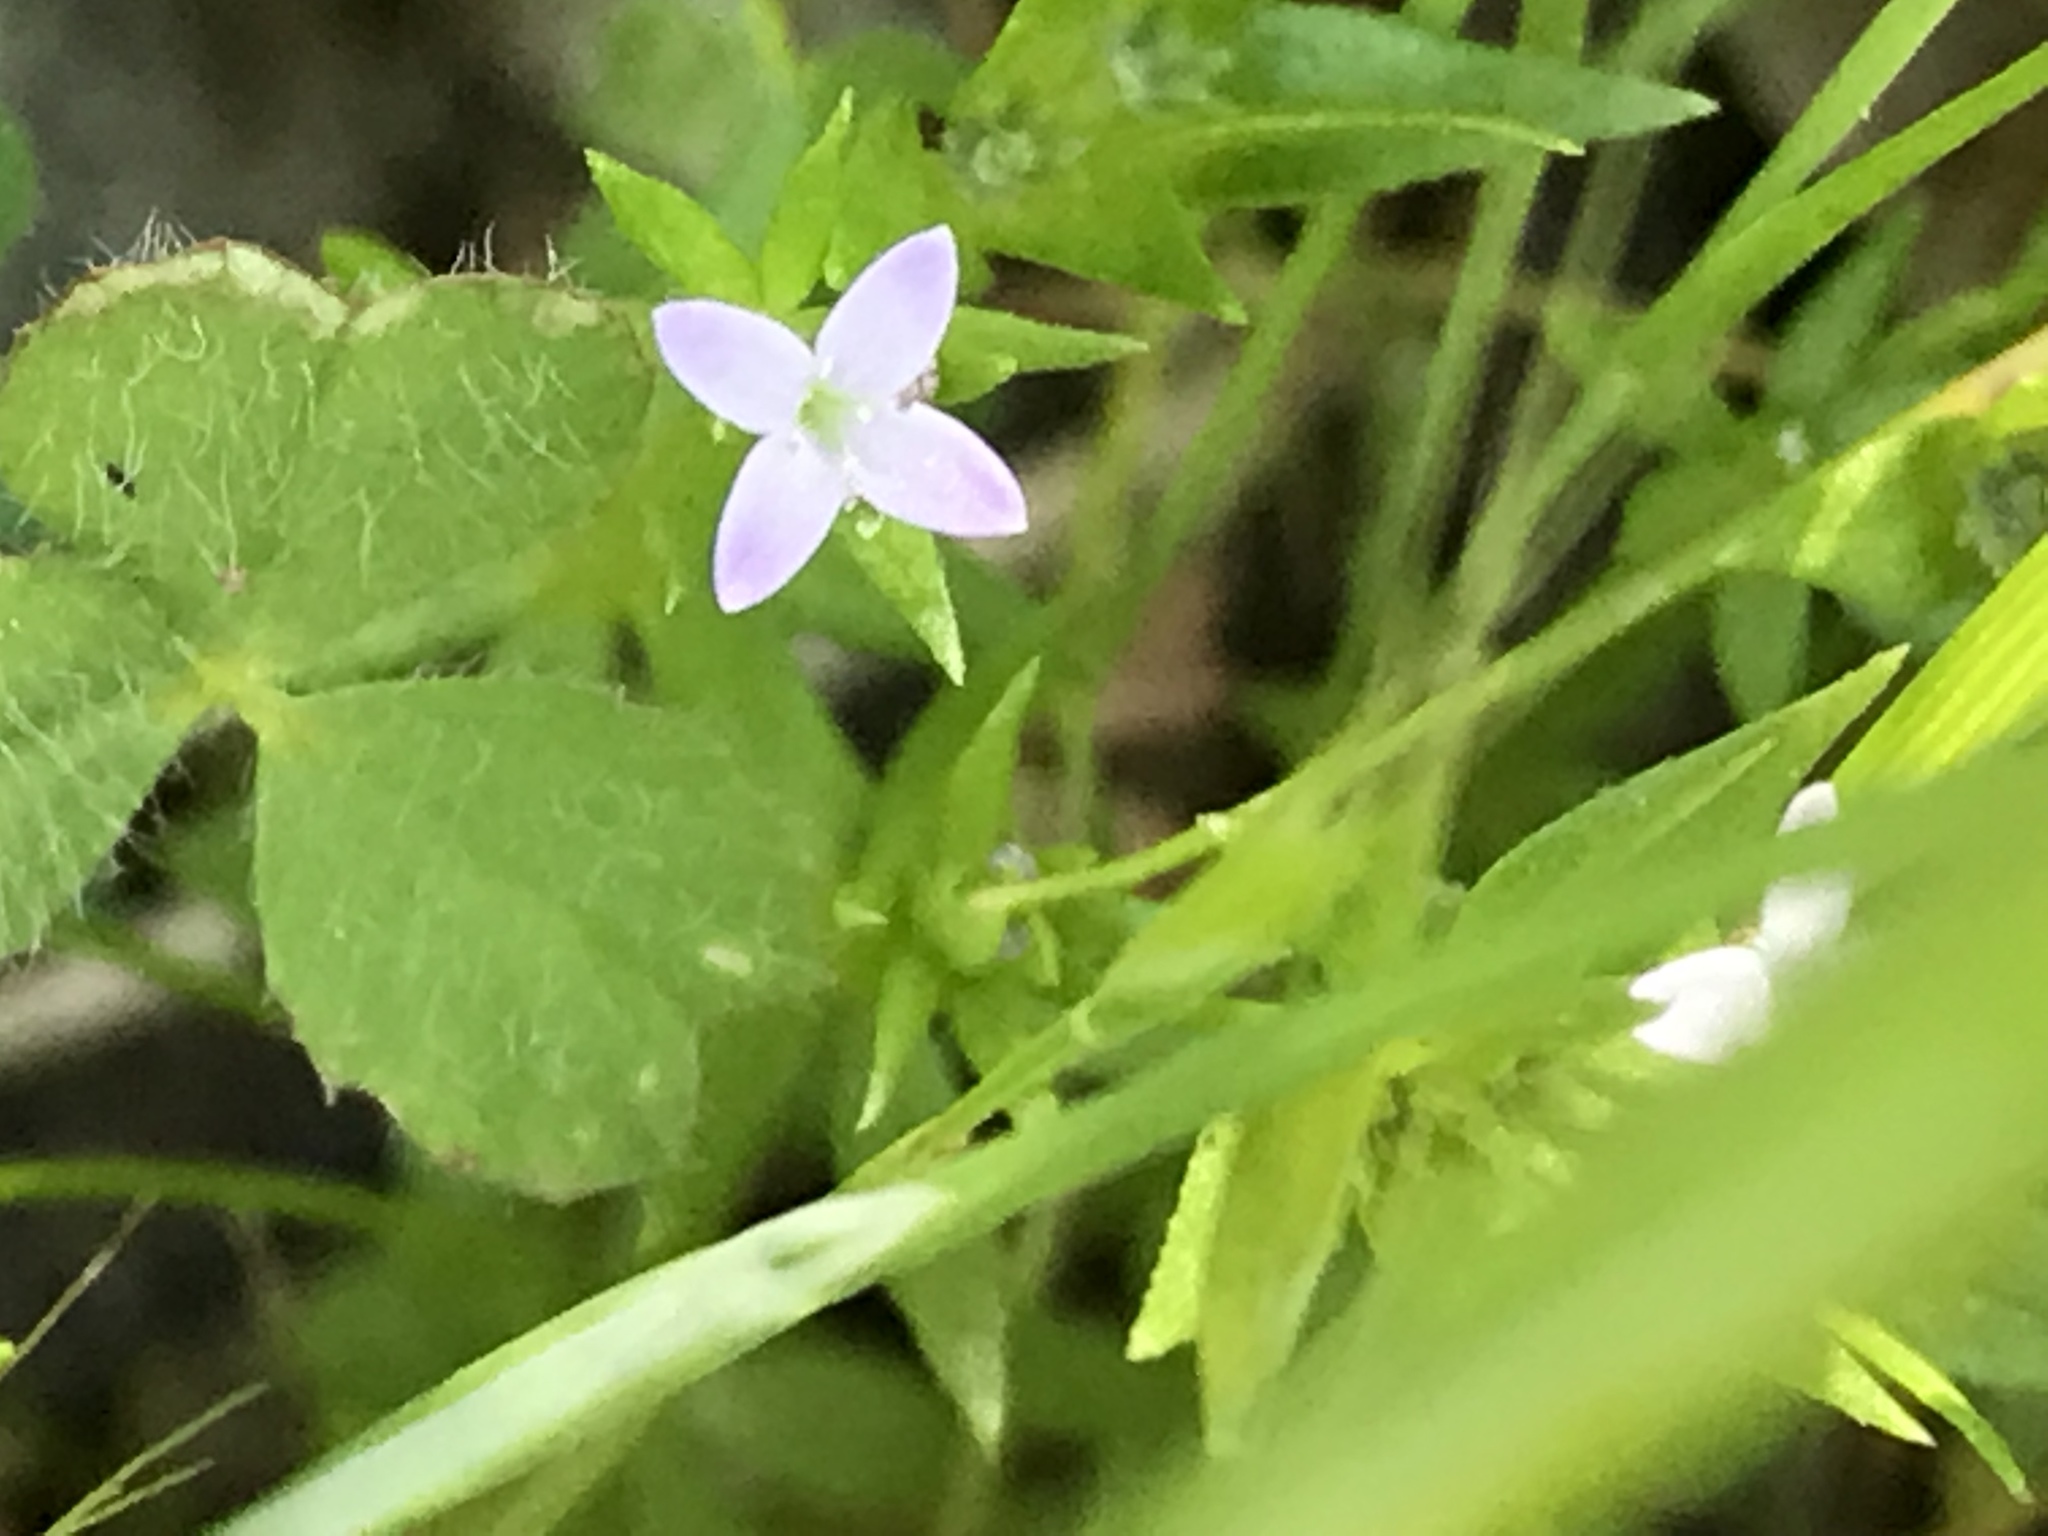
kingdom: Plantae
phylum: Tracheophyta
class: Magnoliopsida
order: Gentianales
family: Rubiaceae
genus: Sherardia
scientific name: Sherardia arvensis
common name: Field madder
